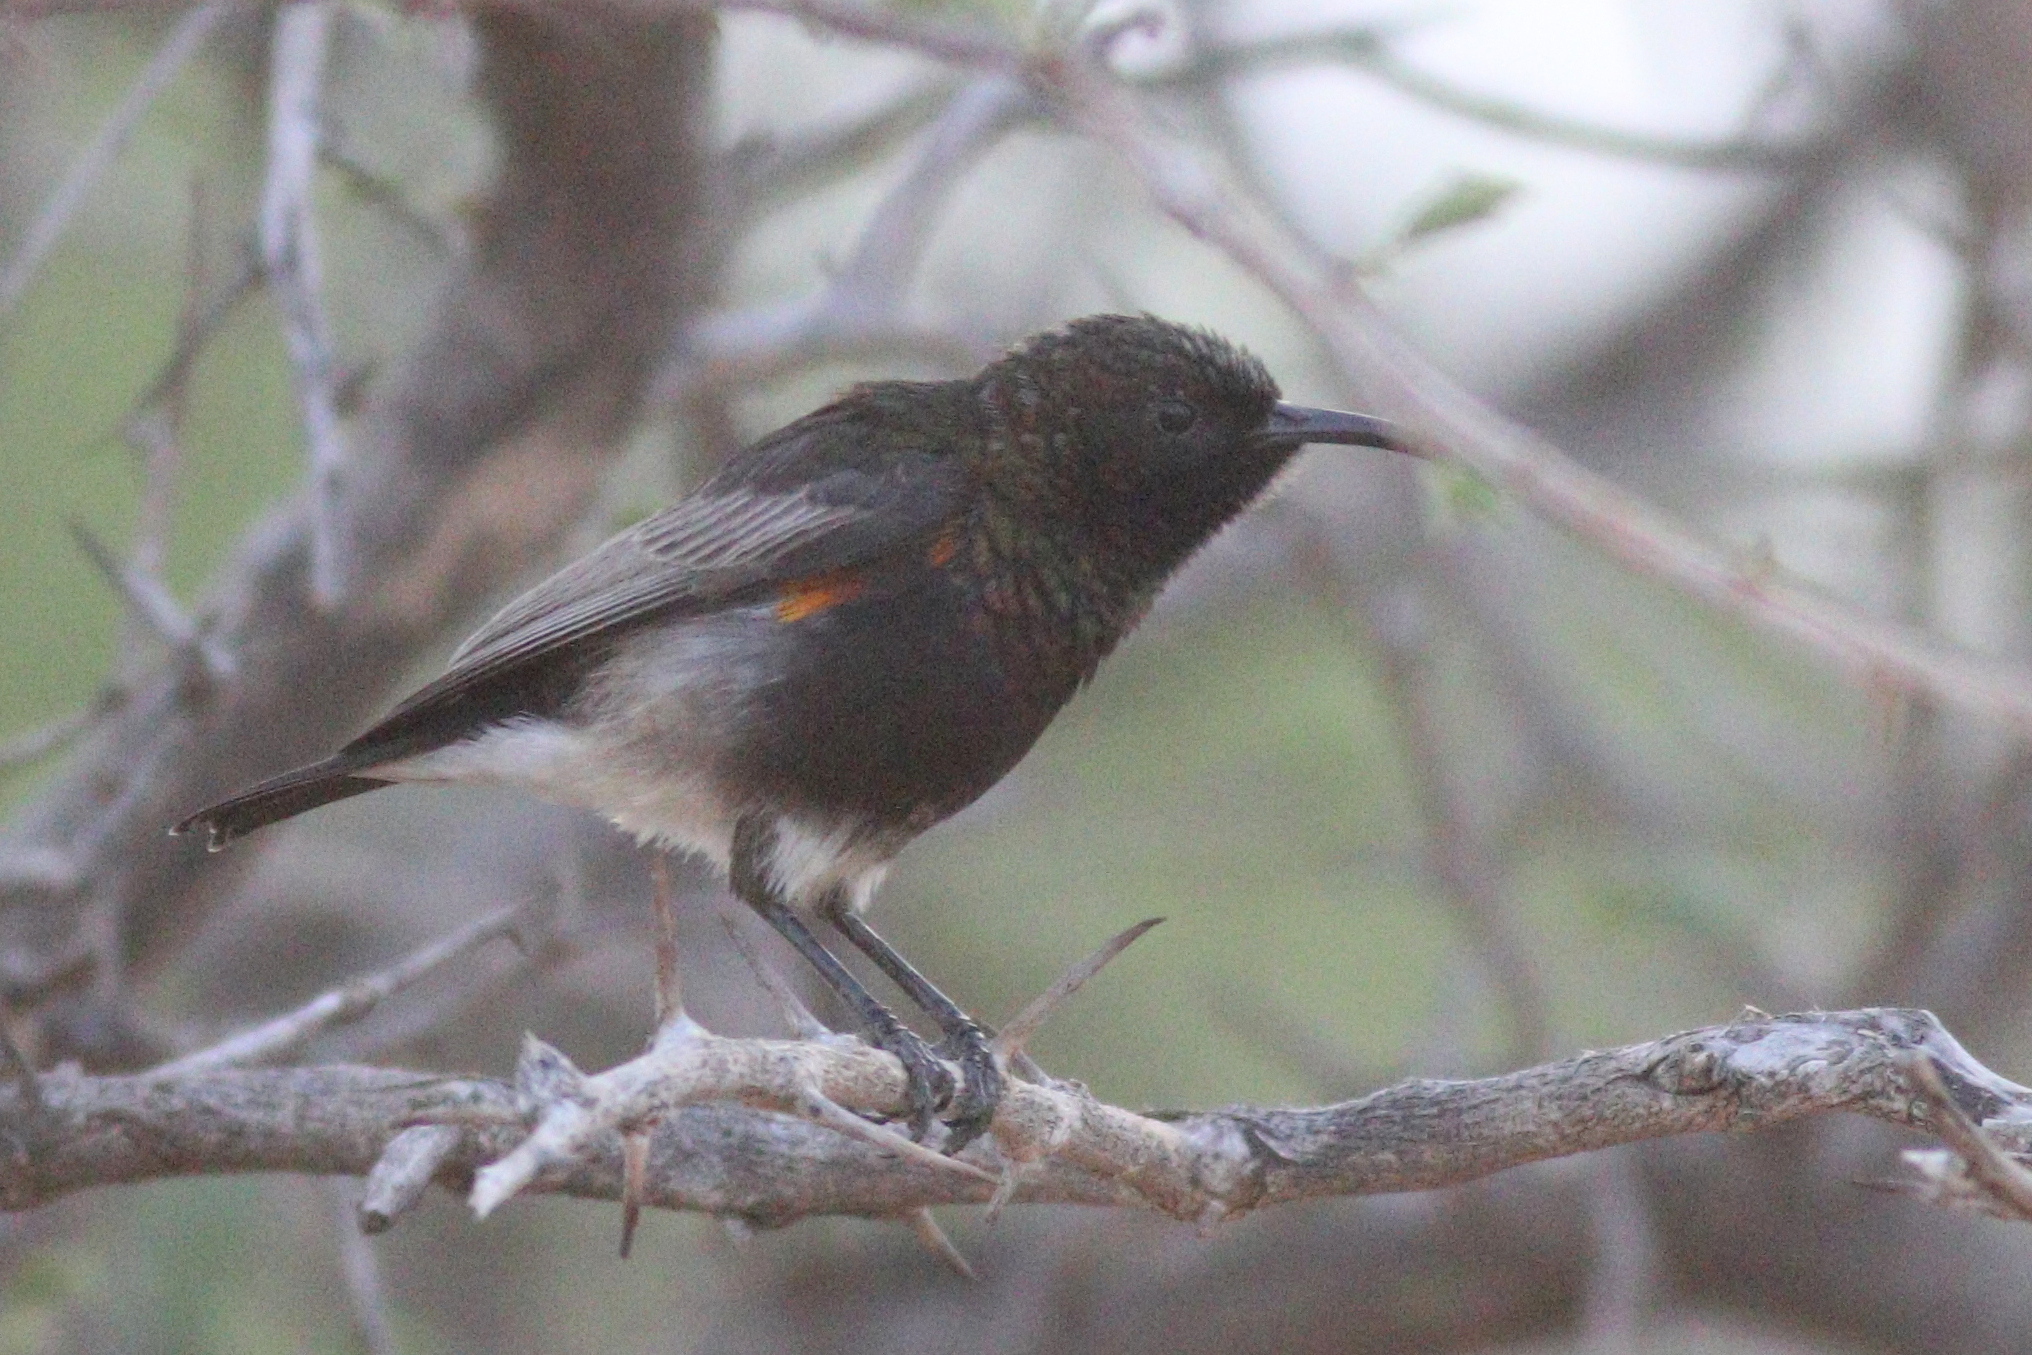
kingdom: Animalia
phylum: Chordata
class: Aves
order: Passeriformes
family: Nectariniidae
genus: Cinnyris
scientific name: Cinnyris fuscus
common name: Dusky sunbird
